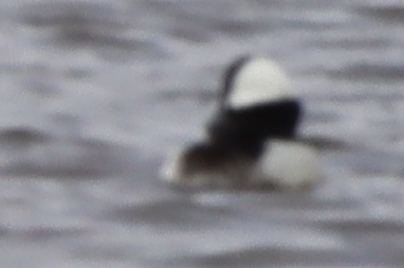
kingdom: Animalia
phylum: Chordata
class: Aves
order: Anseriformes
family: Anatidae
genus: Bucephala
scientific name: Bucephala albeola
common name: Bufflehead
